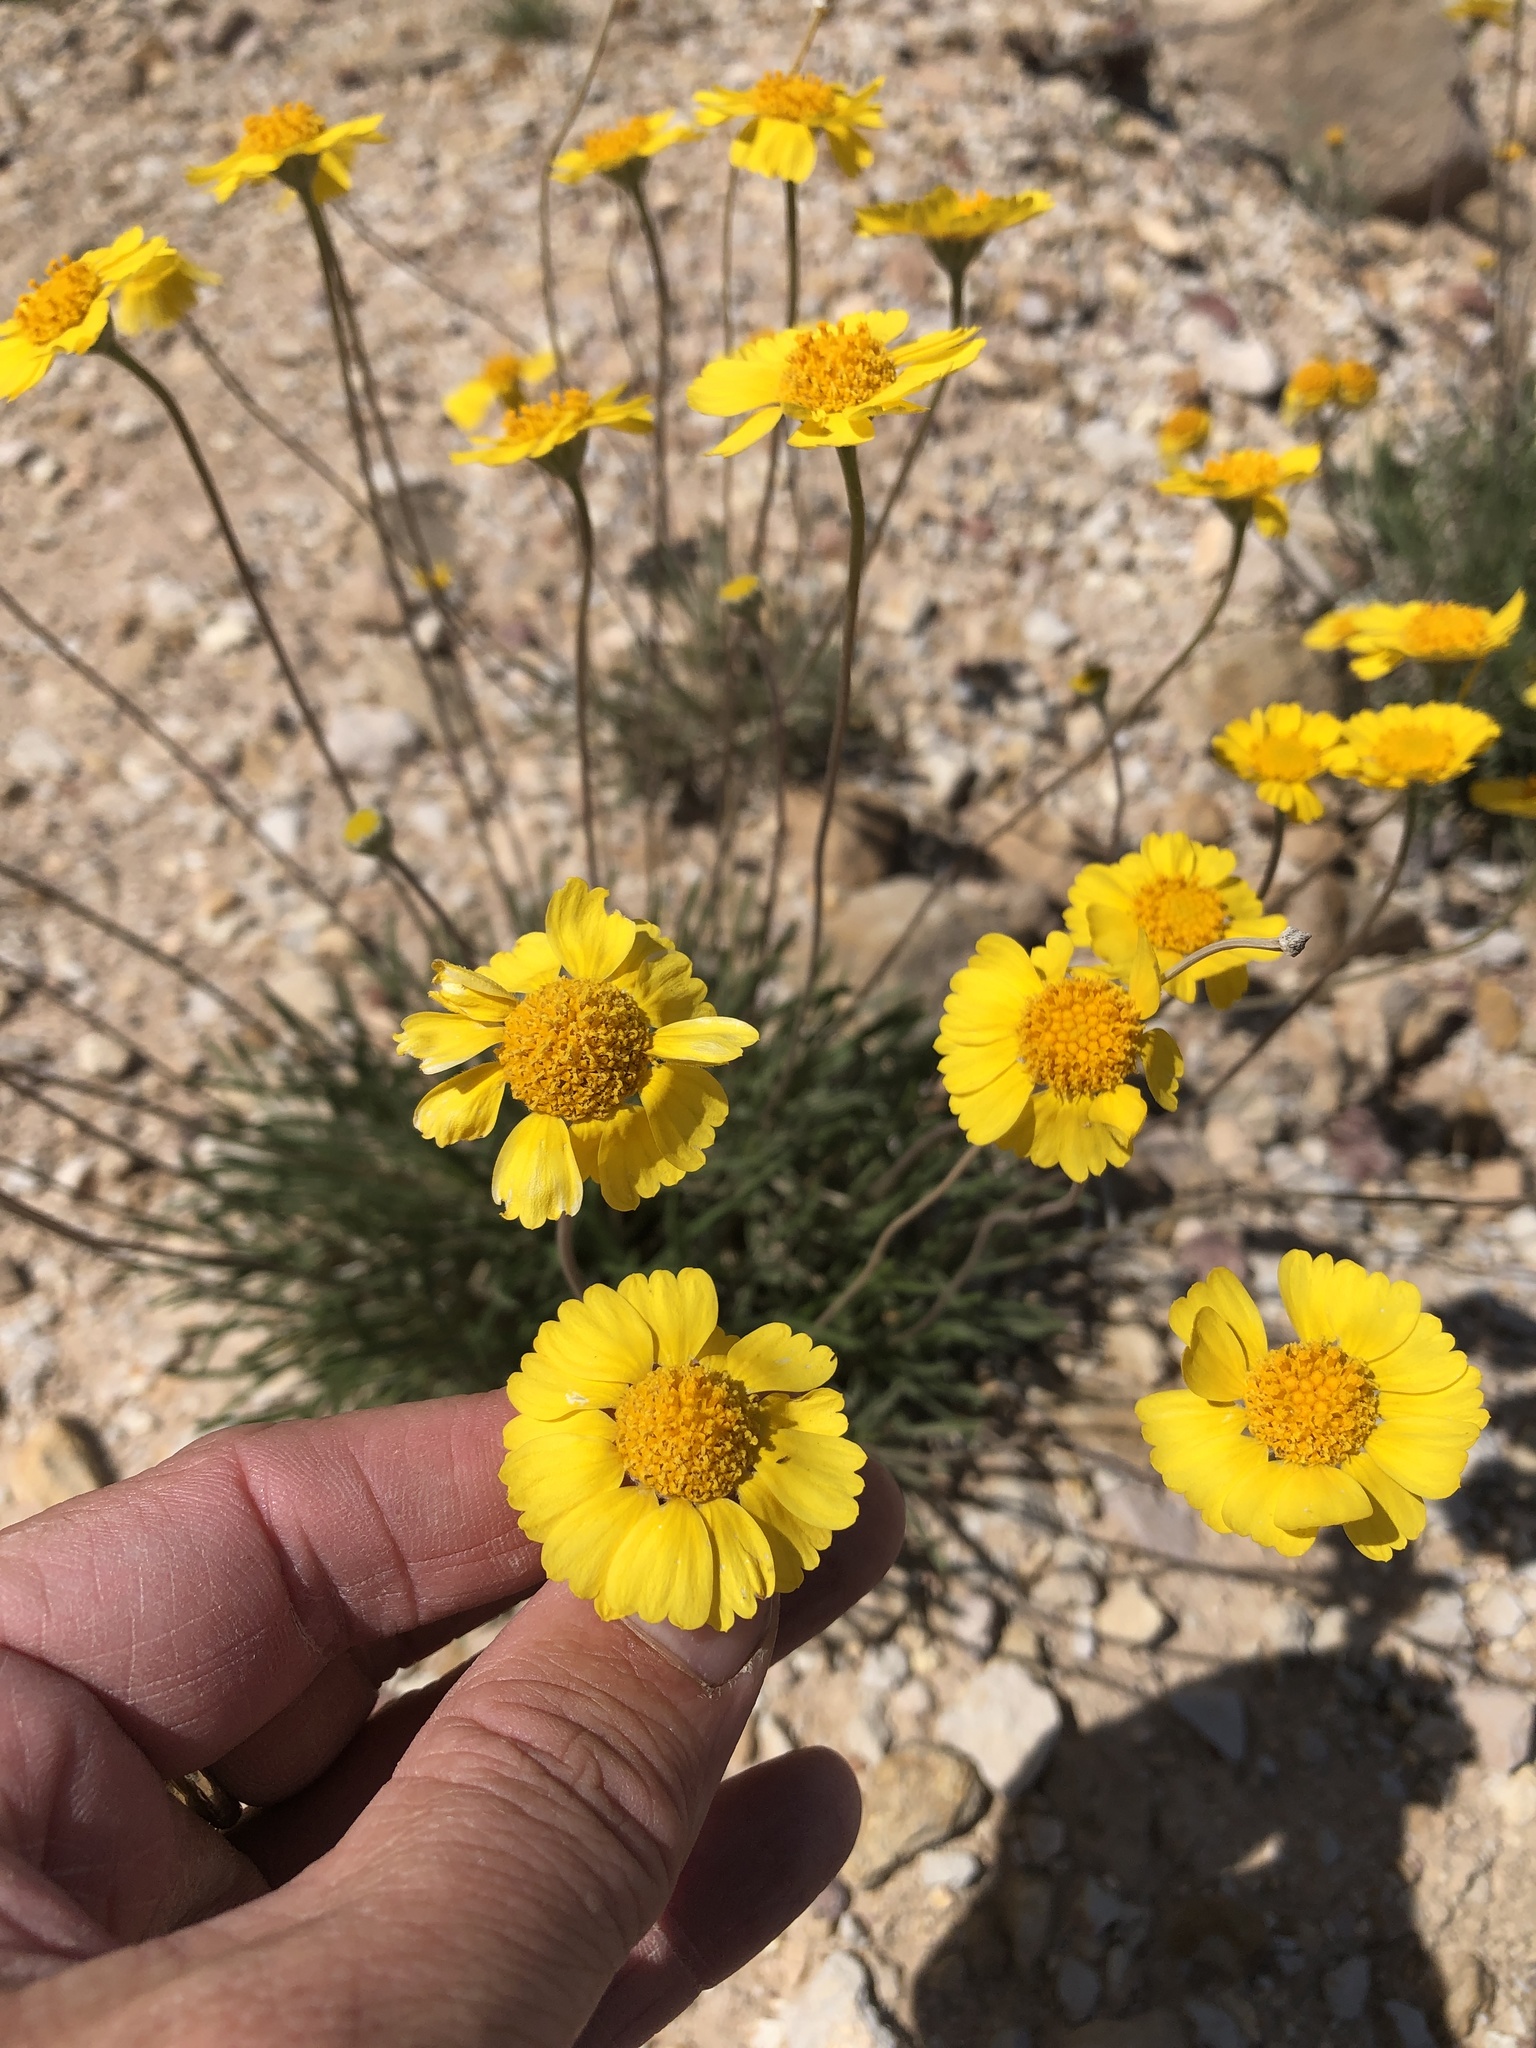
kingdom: Plantae
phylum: Tracheophyta
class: Magnoliopsida
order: Asterales
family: Asteraceae
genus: Tetraneuris
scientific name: Tetraneuris scaposa
